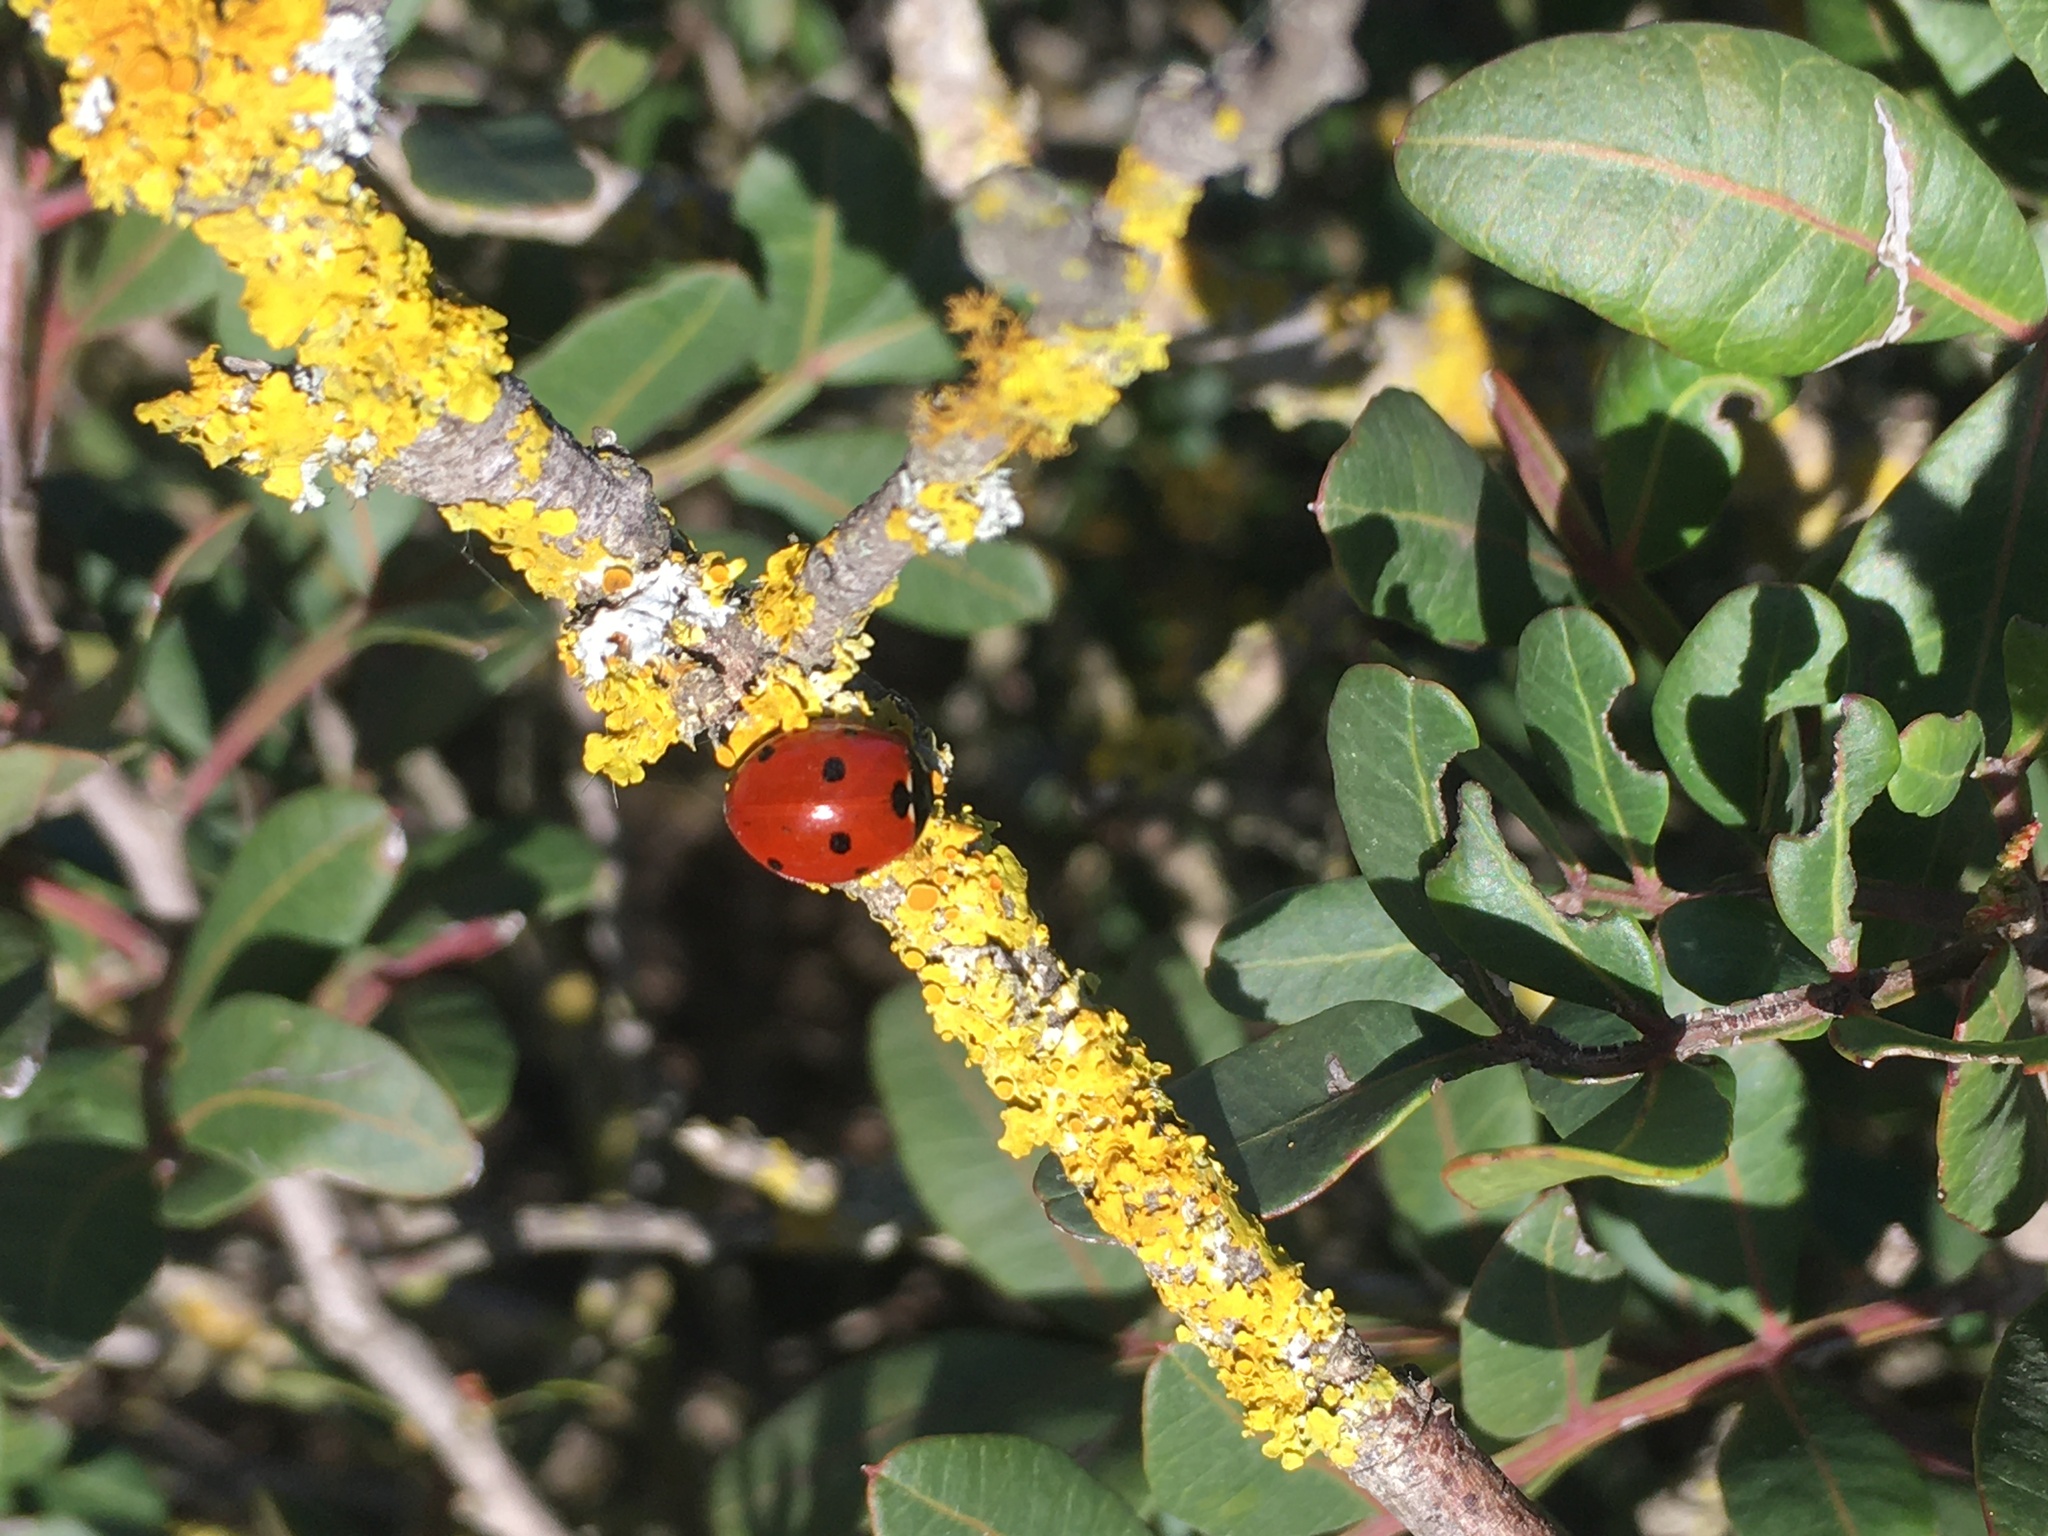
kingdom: Animalia
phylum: Arthropoda
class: Insecta
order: Coleoptera
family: Coccinellidae
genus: Coccinella
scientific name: Coccinella septempunctata
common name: Sevenspotted lady beetle
